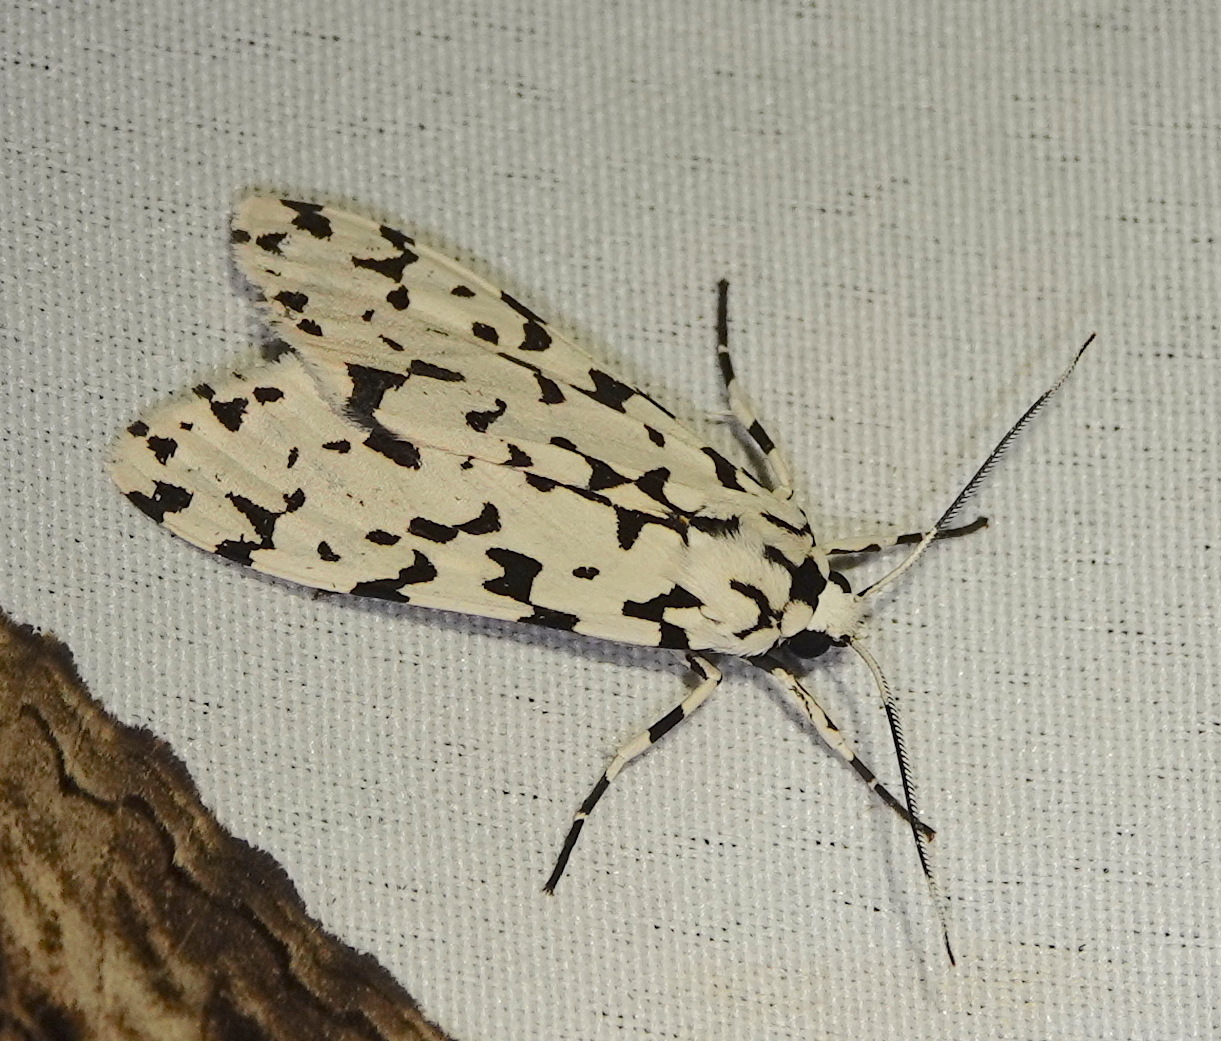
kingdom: Animalia
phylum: Arthropoda
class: Insecta
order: Lepidoptera
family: Erebidae
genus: Eucereon
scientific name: Eucereon tigrata
